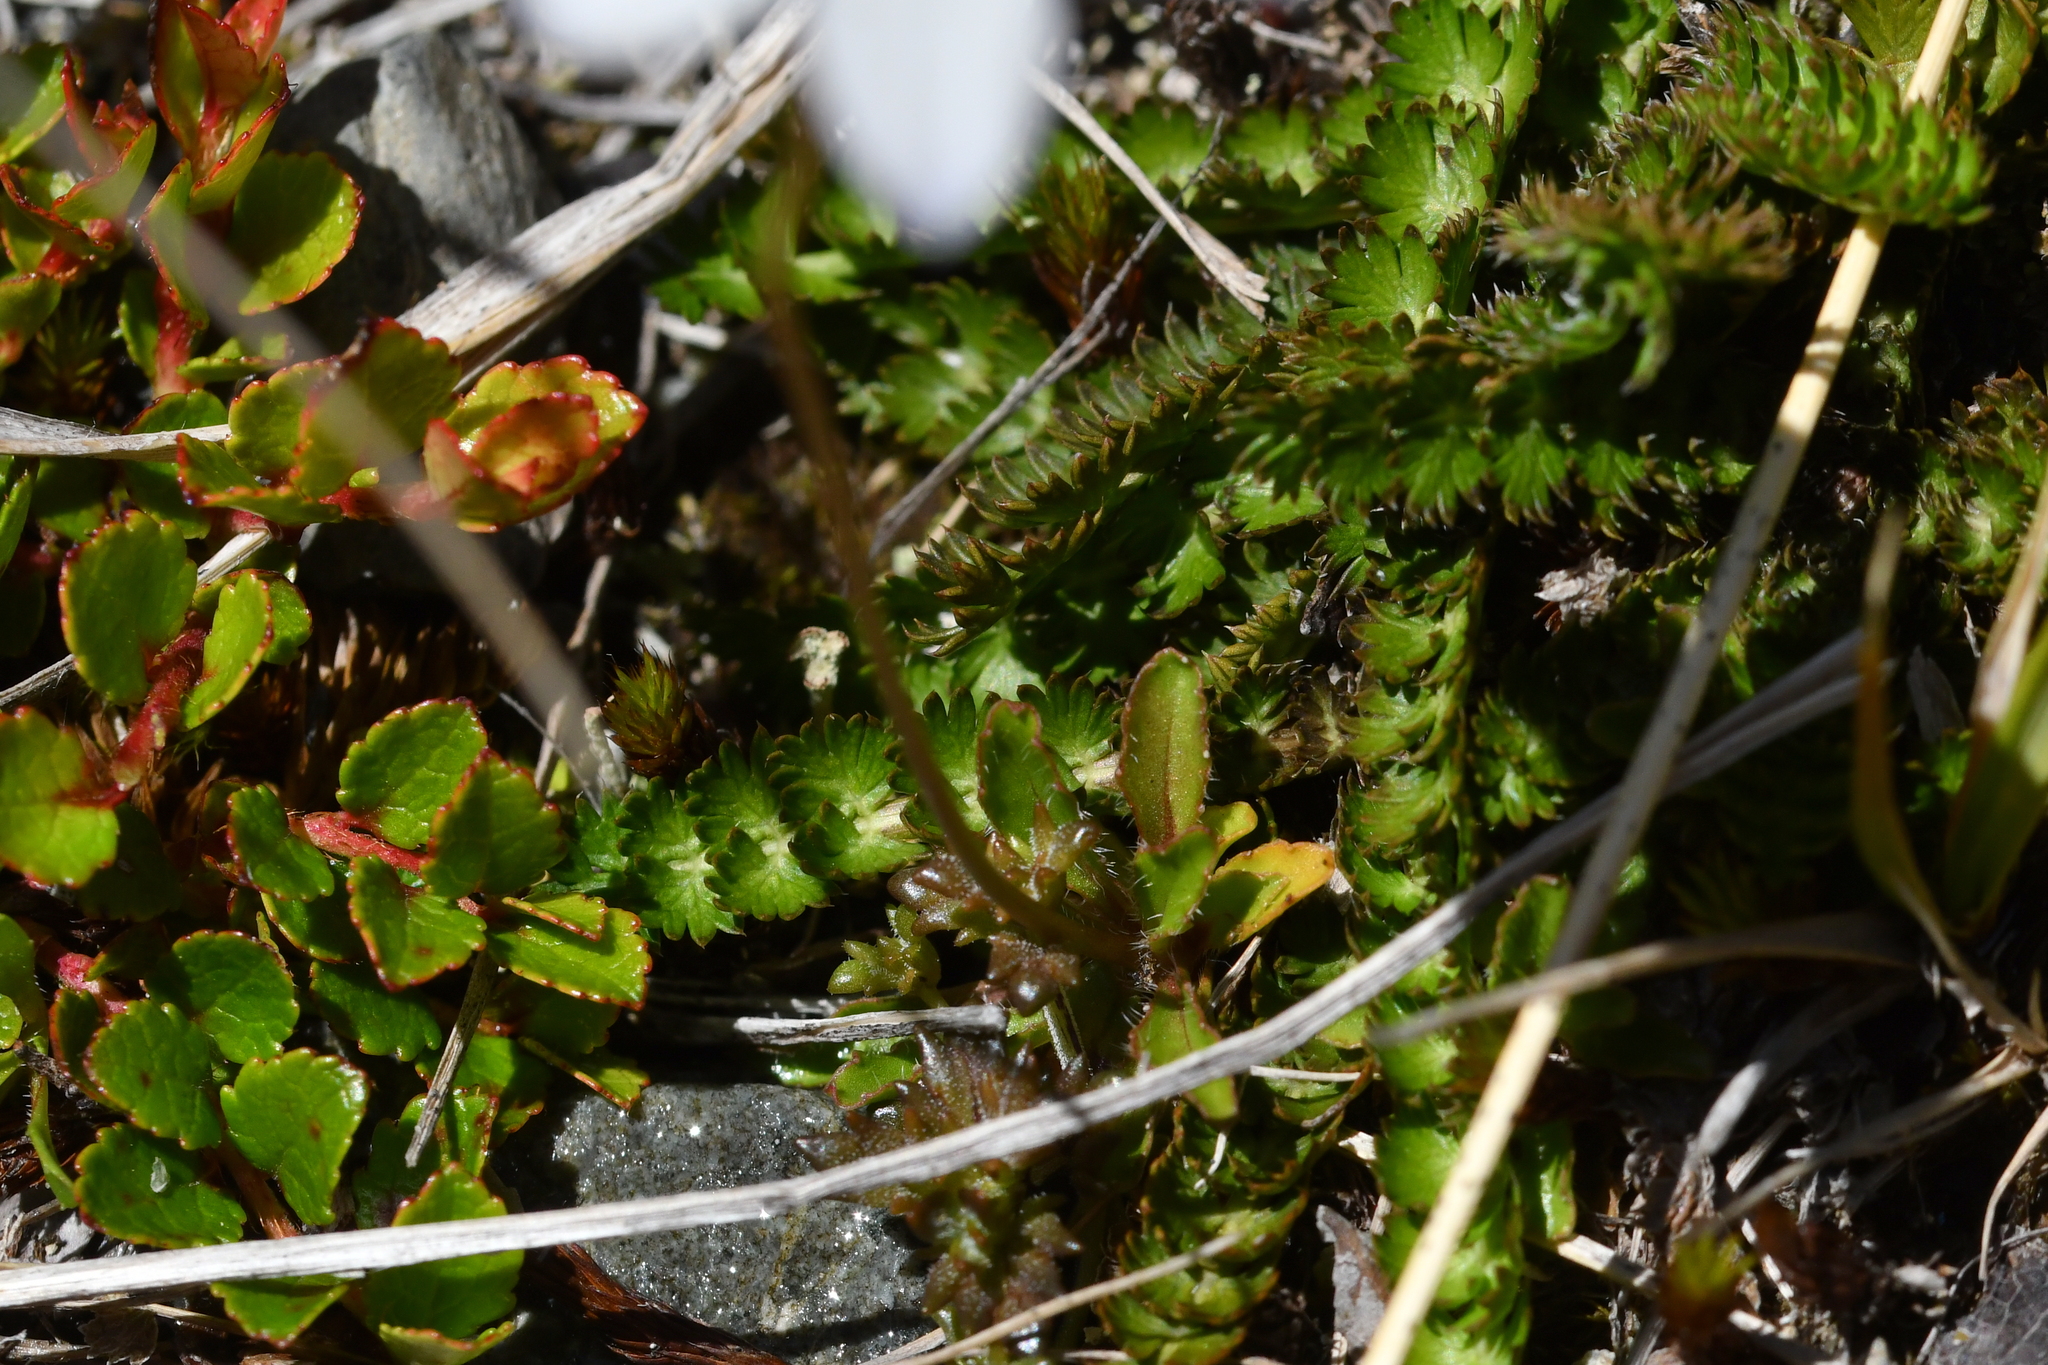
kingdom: Plantae
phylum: Tracheophyta
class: Magnoliopsida
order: Asterales
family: Campanulaceae
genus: Wahlenbergia
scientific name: Wahlenbergia albomarginata
